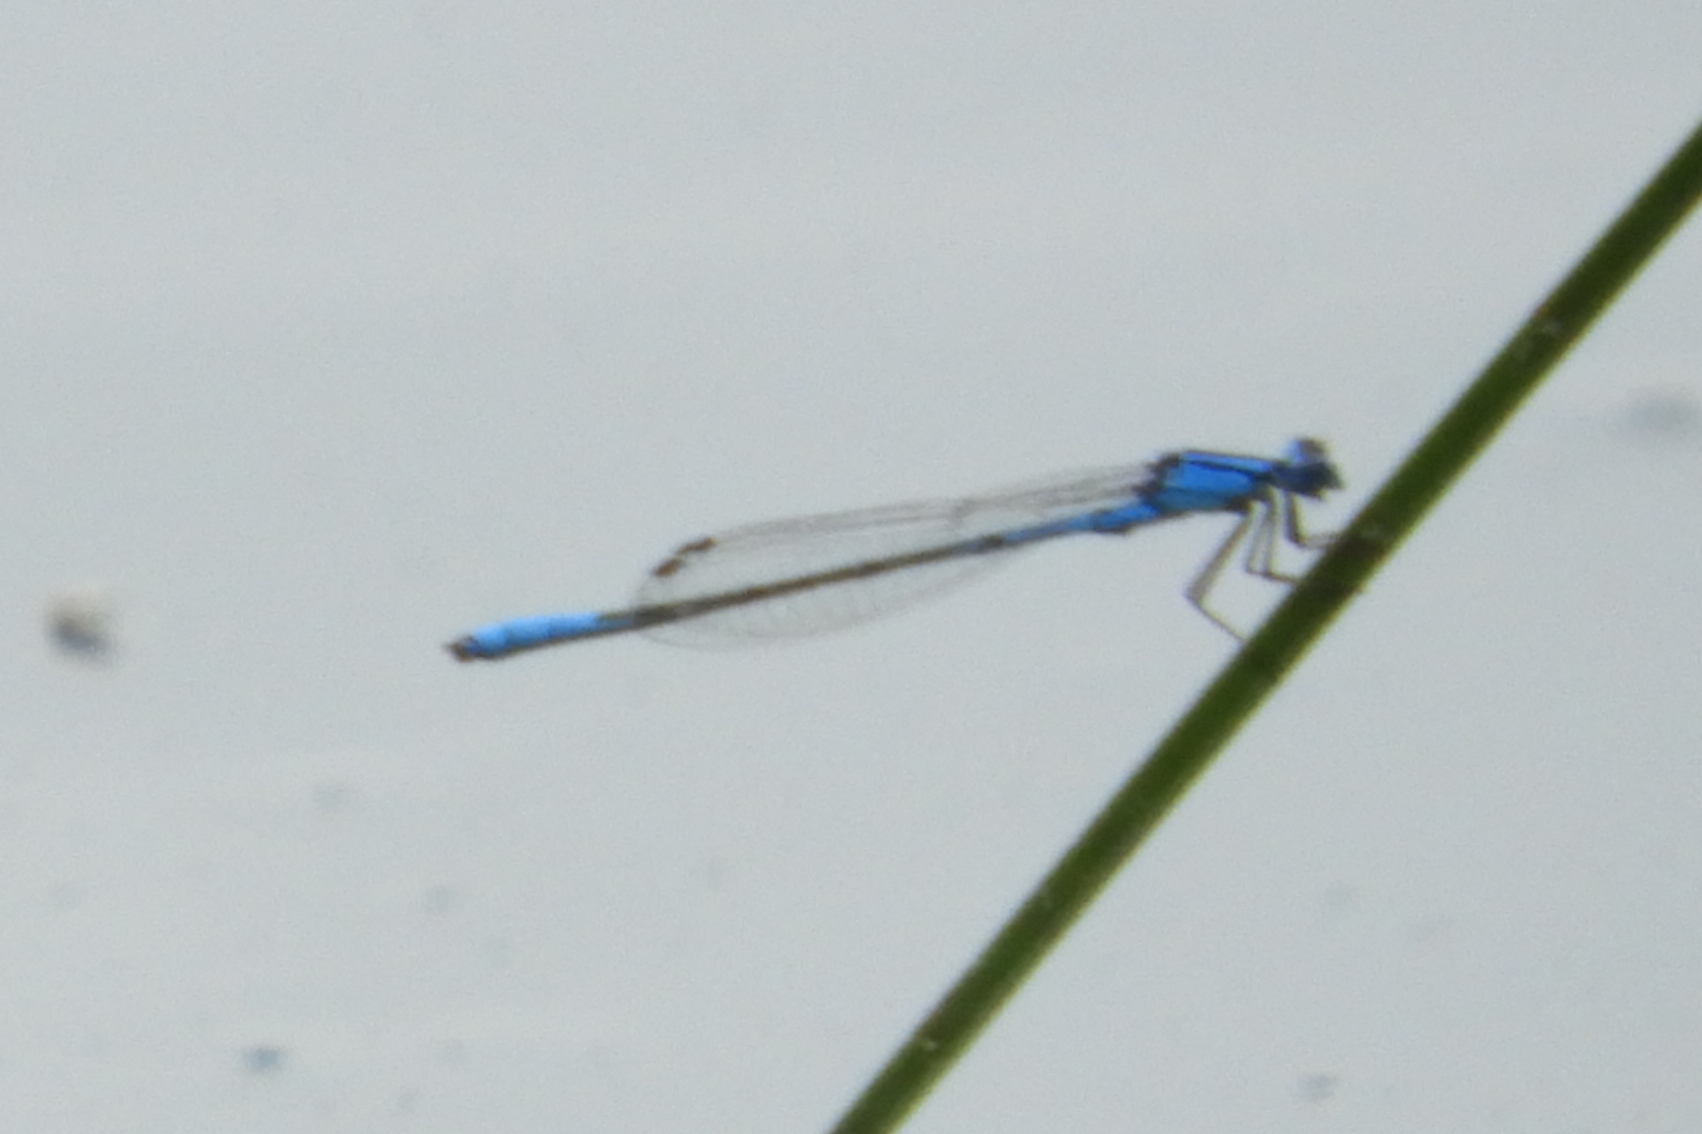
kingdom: Animalia
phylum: Arthropoda
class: Insecta
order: Odonata
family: Coenagrionidae
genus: Enallagma
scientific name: Enallagma aspersum
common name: Azure bluet
